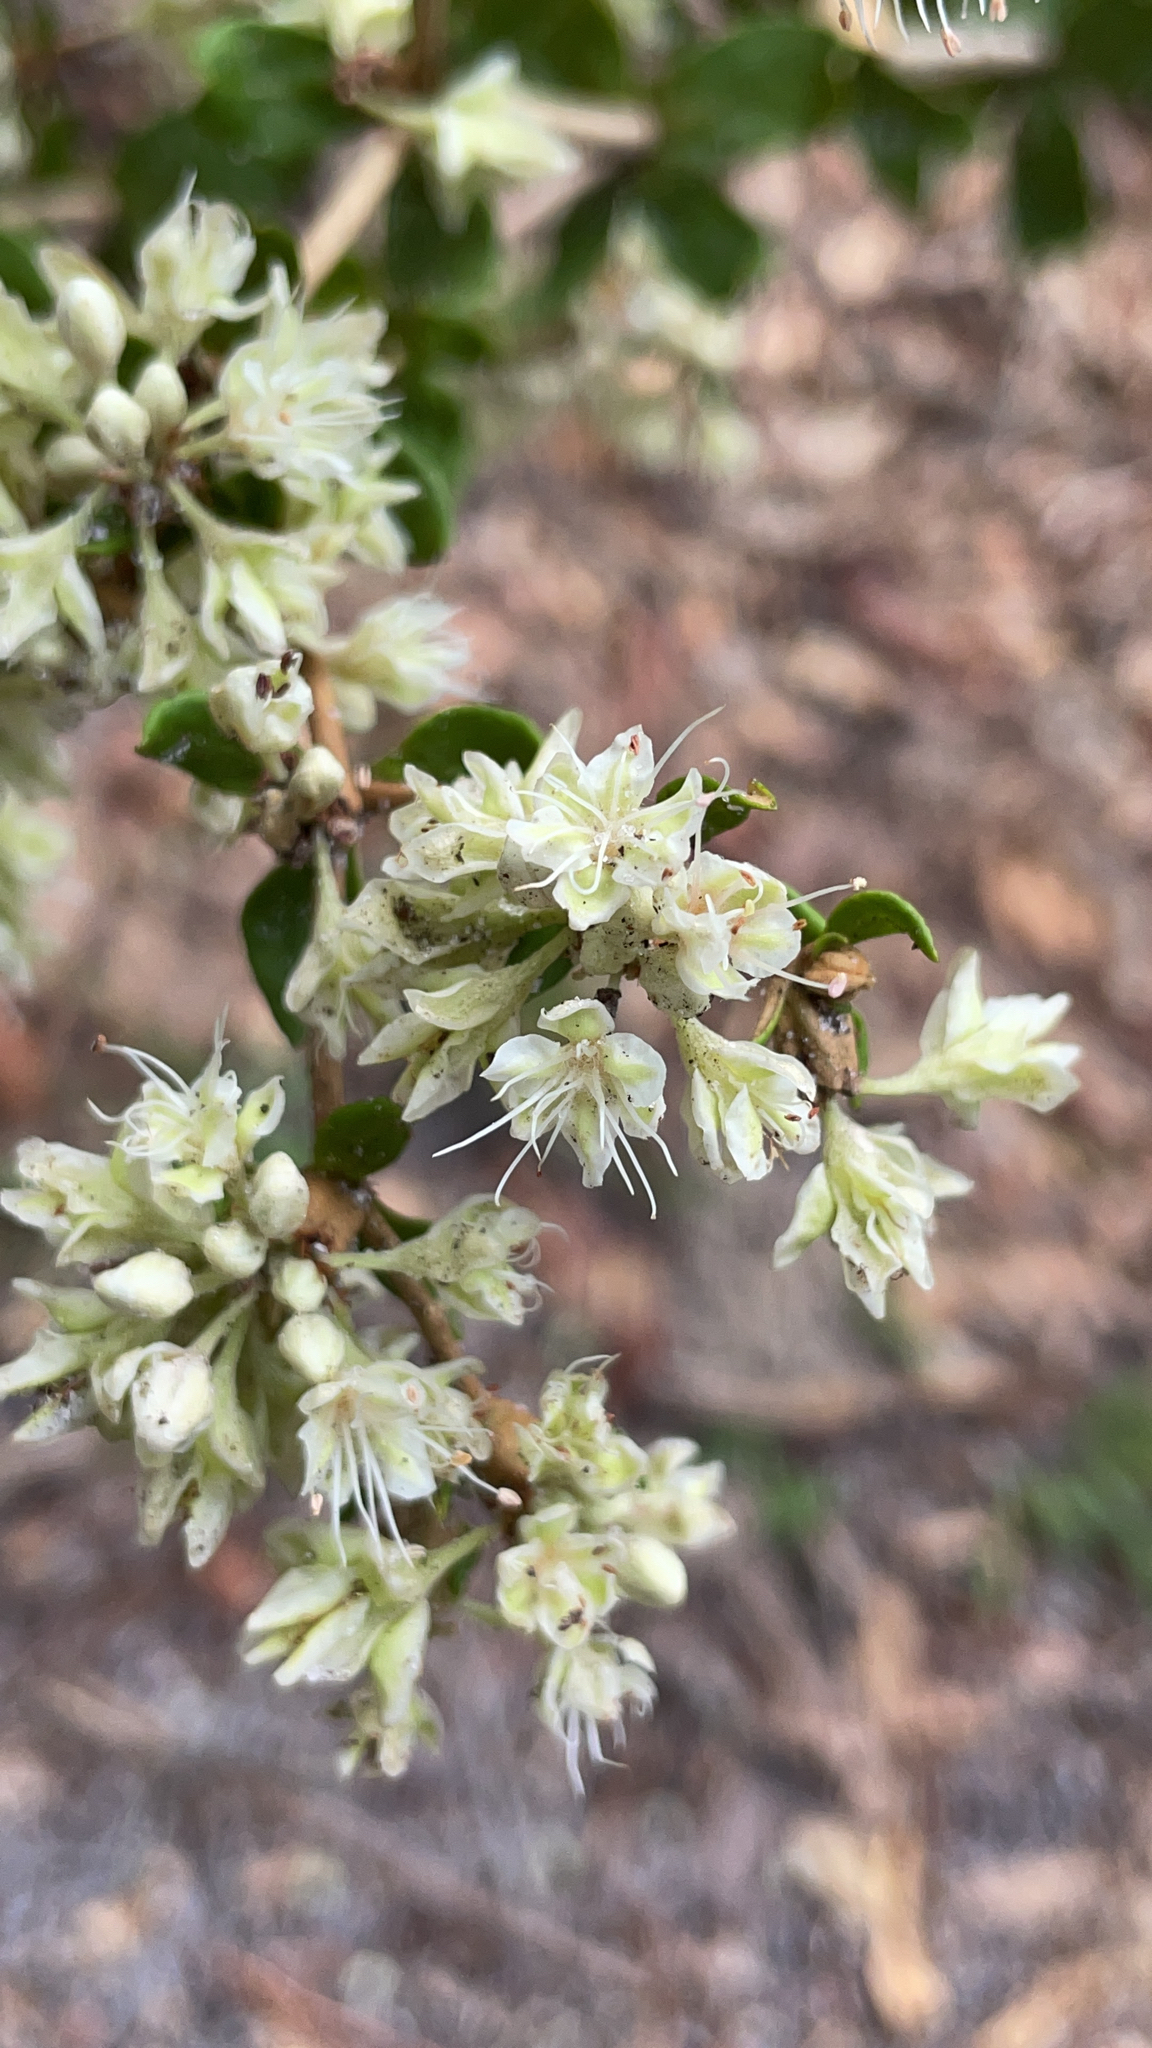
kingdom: Plantae
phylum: Tracheophyta
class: Magnoliopsida
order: Caryophyllales
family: Polygonaceae
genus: Eriogonum
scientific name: Eriogonum tomentosum
